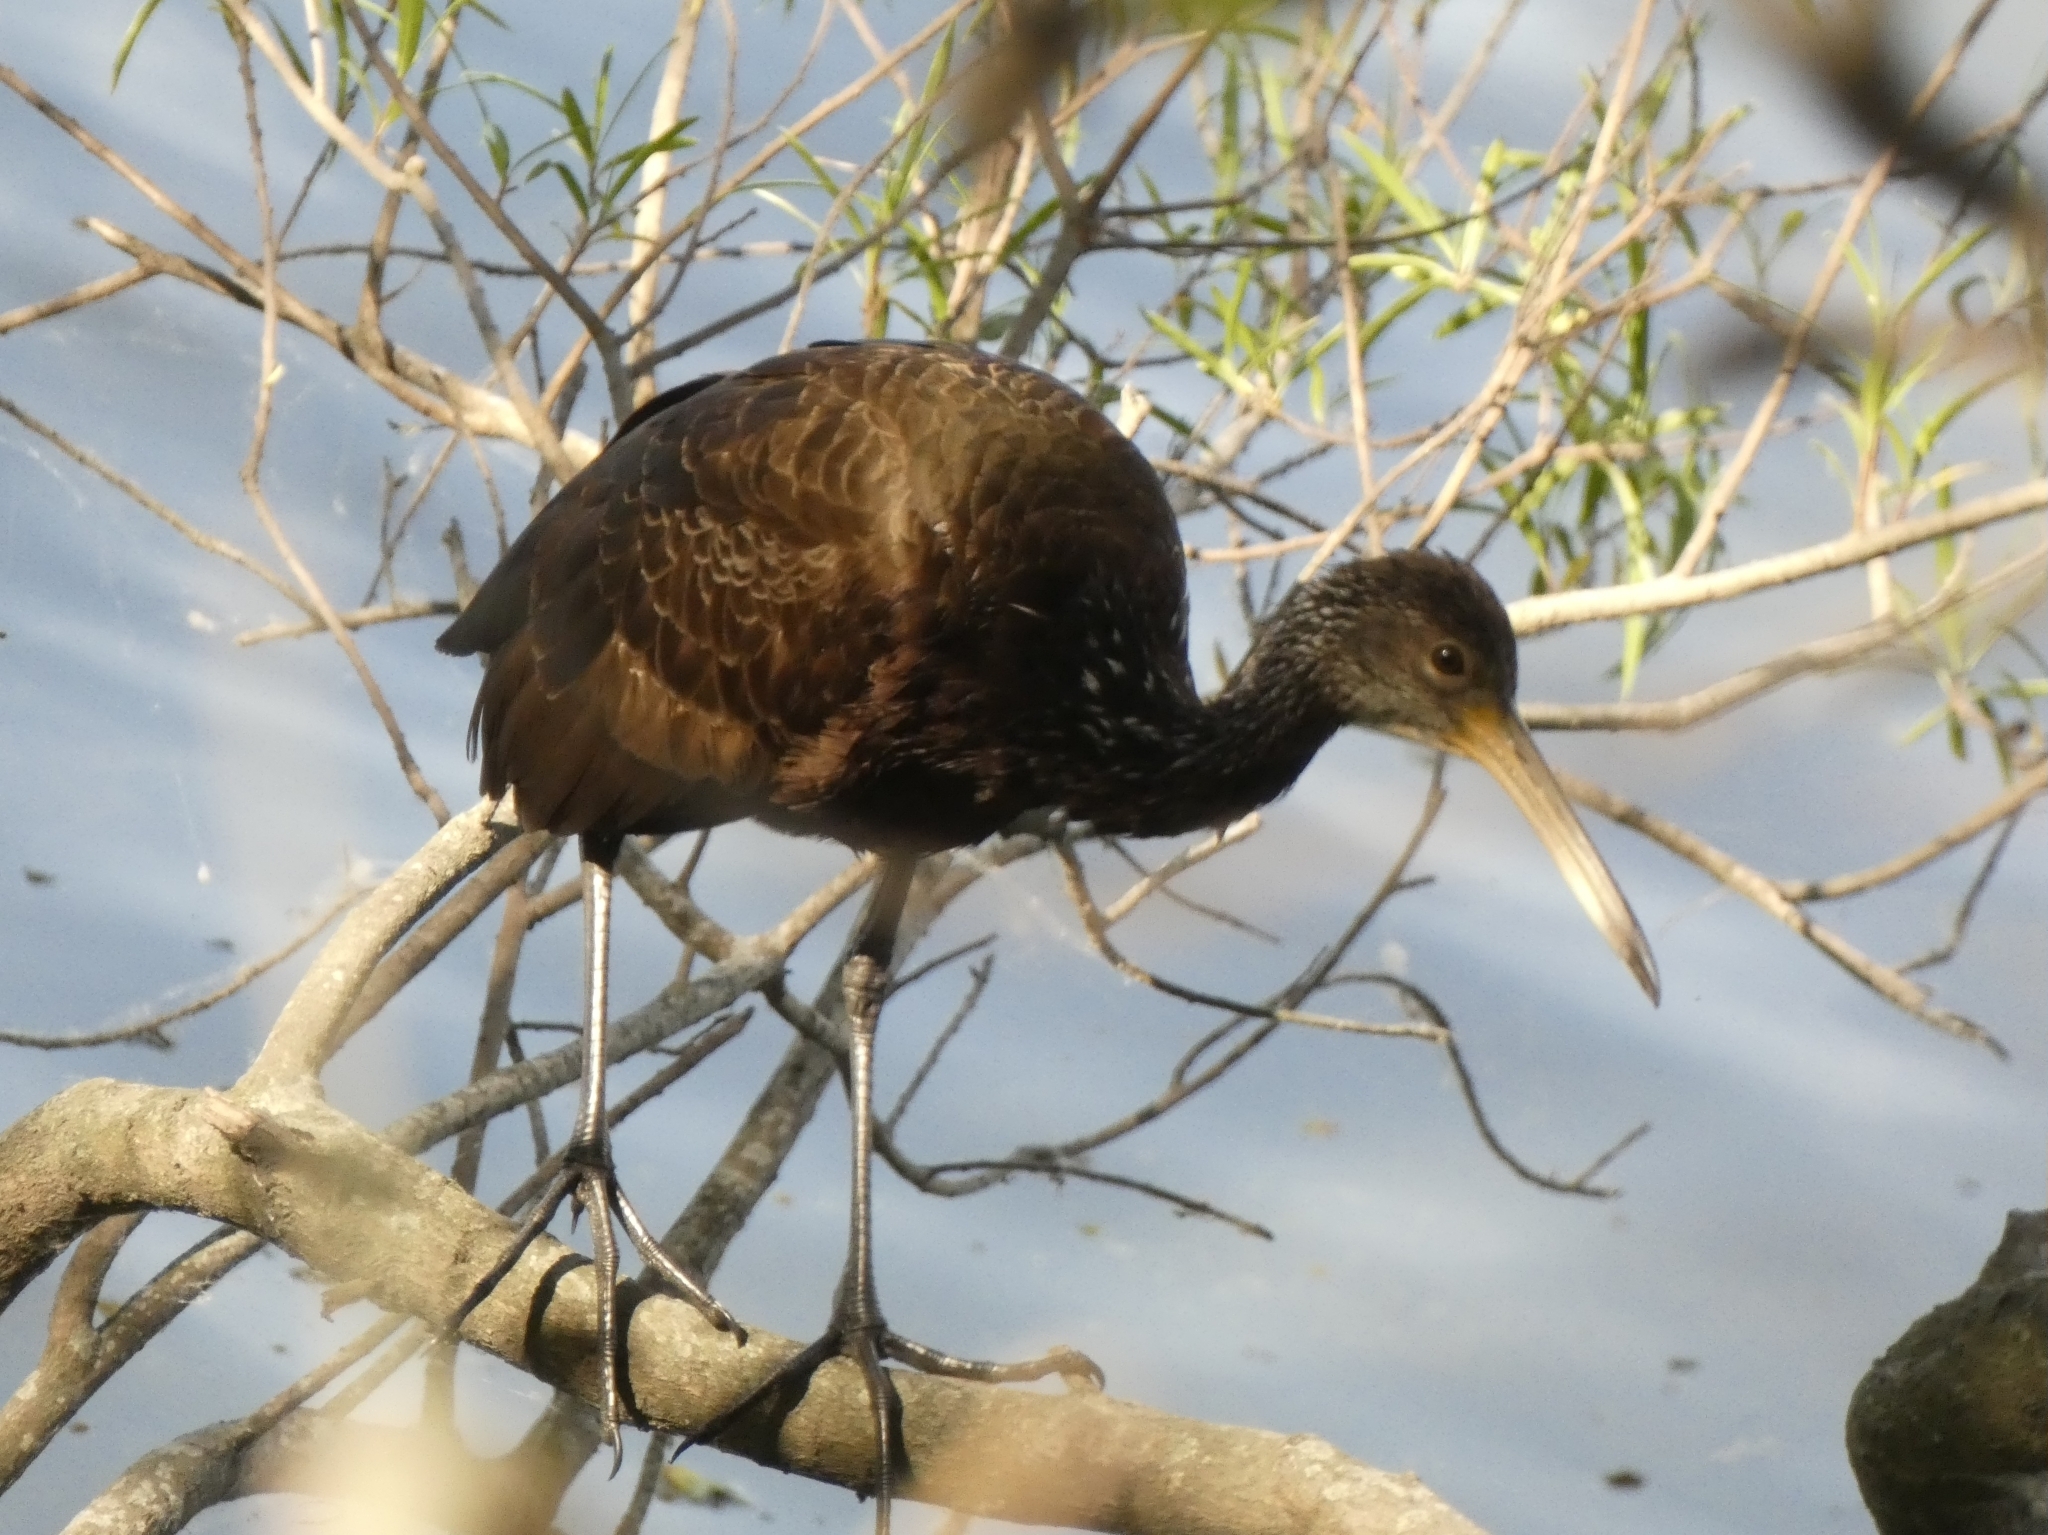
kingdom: Animalia
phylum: Chordata
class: Aves
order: Gruiformes
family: Aramidae
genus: Aramus
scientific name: Aramus guarauna
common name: Limpkin
